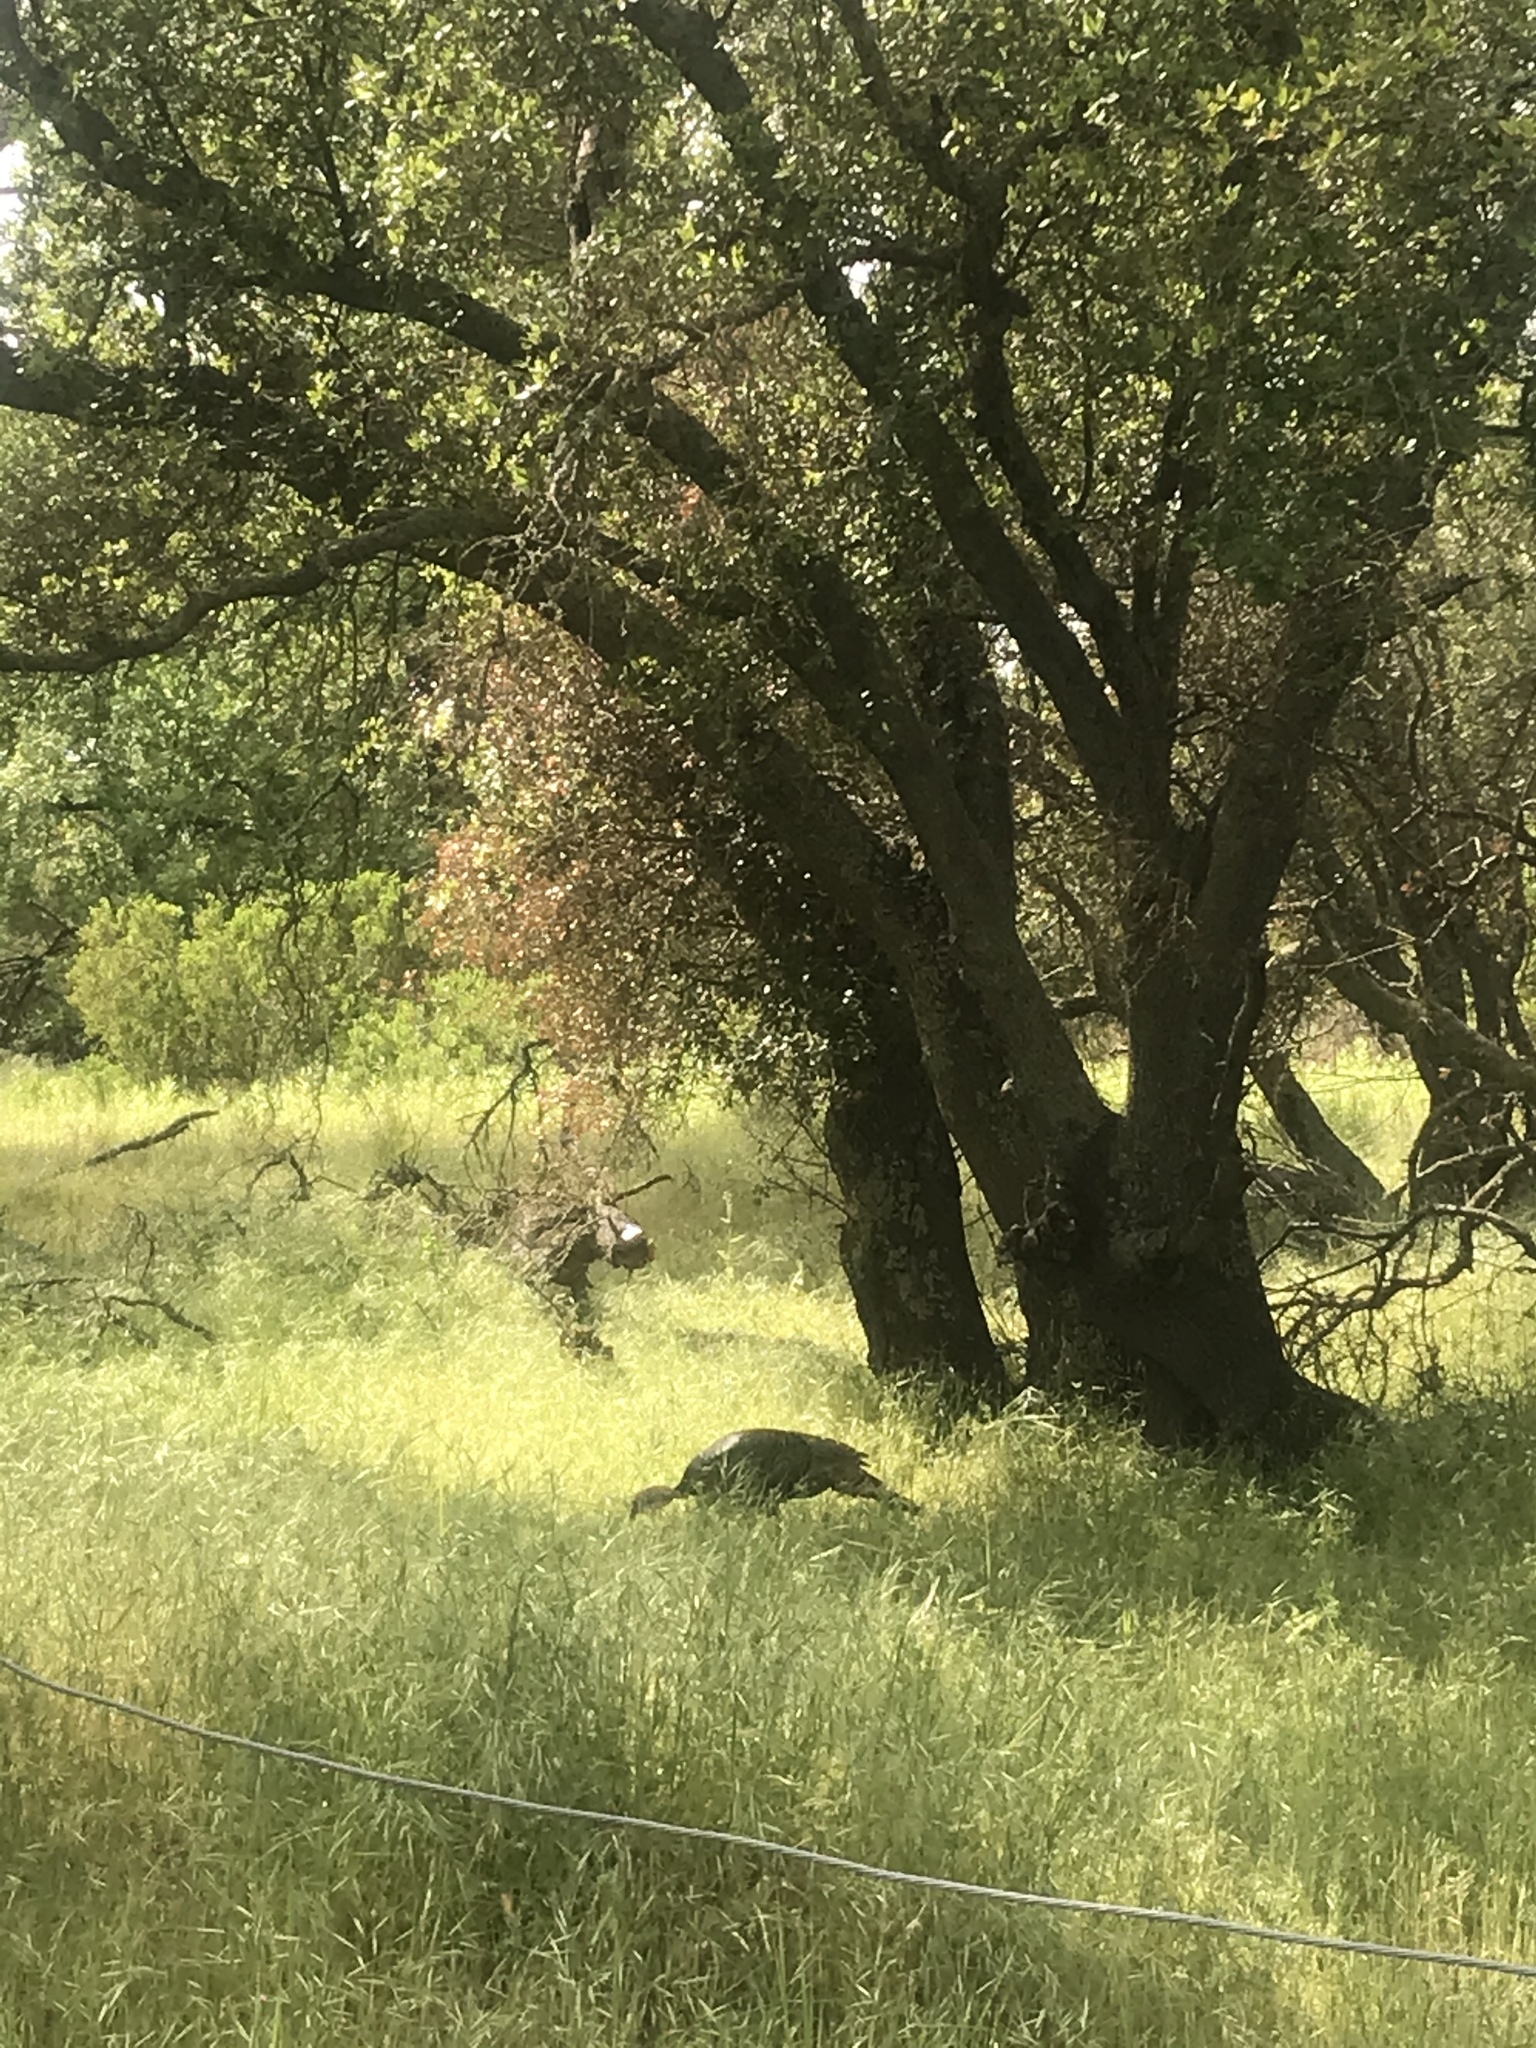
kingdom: Animalia
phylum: Chordata
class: Aves
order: Galliformes
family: Phasianidae
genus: Meleagris
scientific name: Meleagris gallopavo
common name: Wild turkey
